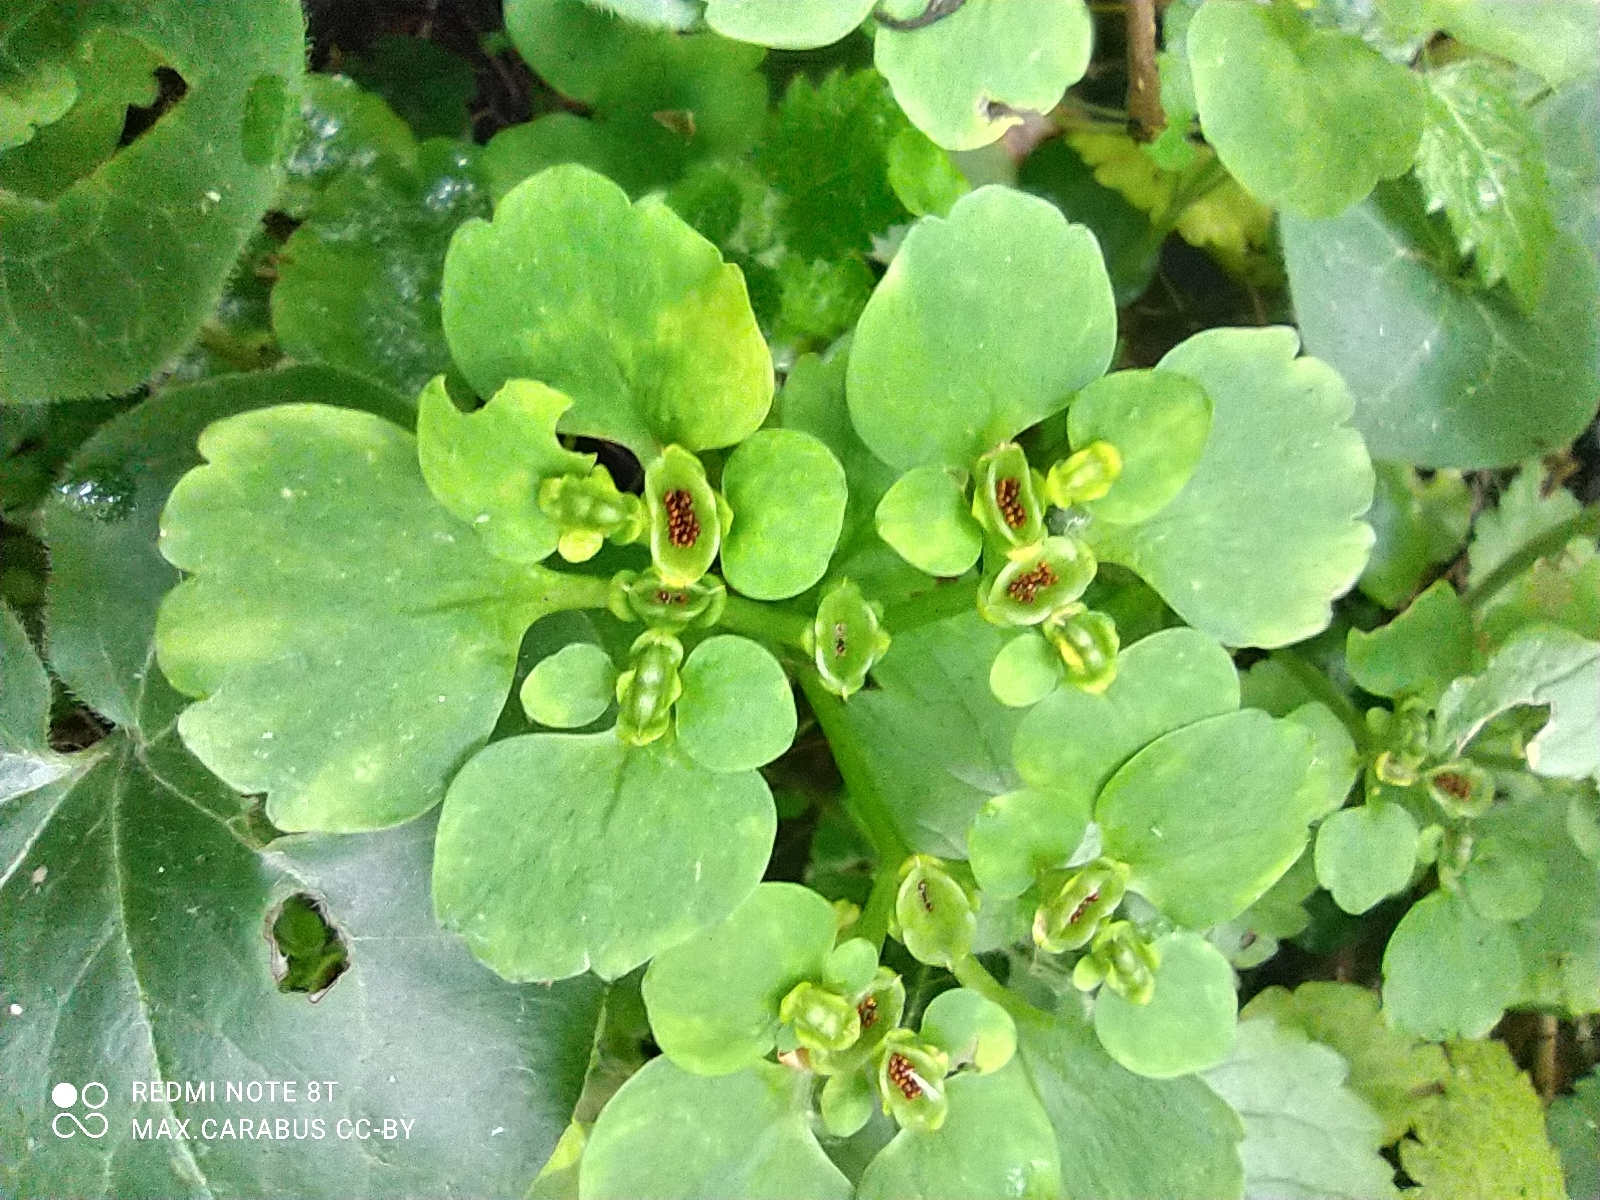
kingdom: Plantae
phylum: Tracheophyta
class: Magnoliopsida
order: Saxifragales
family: Saxifragaceae
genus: Chrysosplenium
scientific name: Chrysosplenium alternifolium
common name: Alternate-leaved golden-saxifrage
